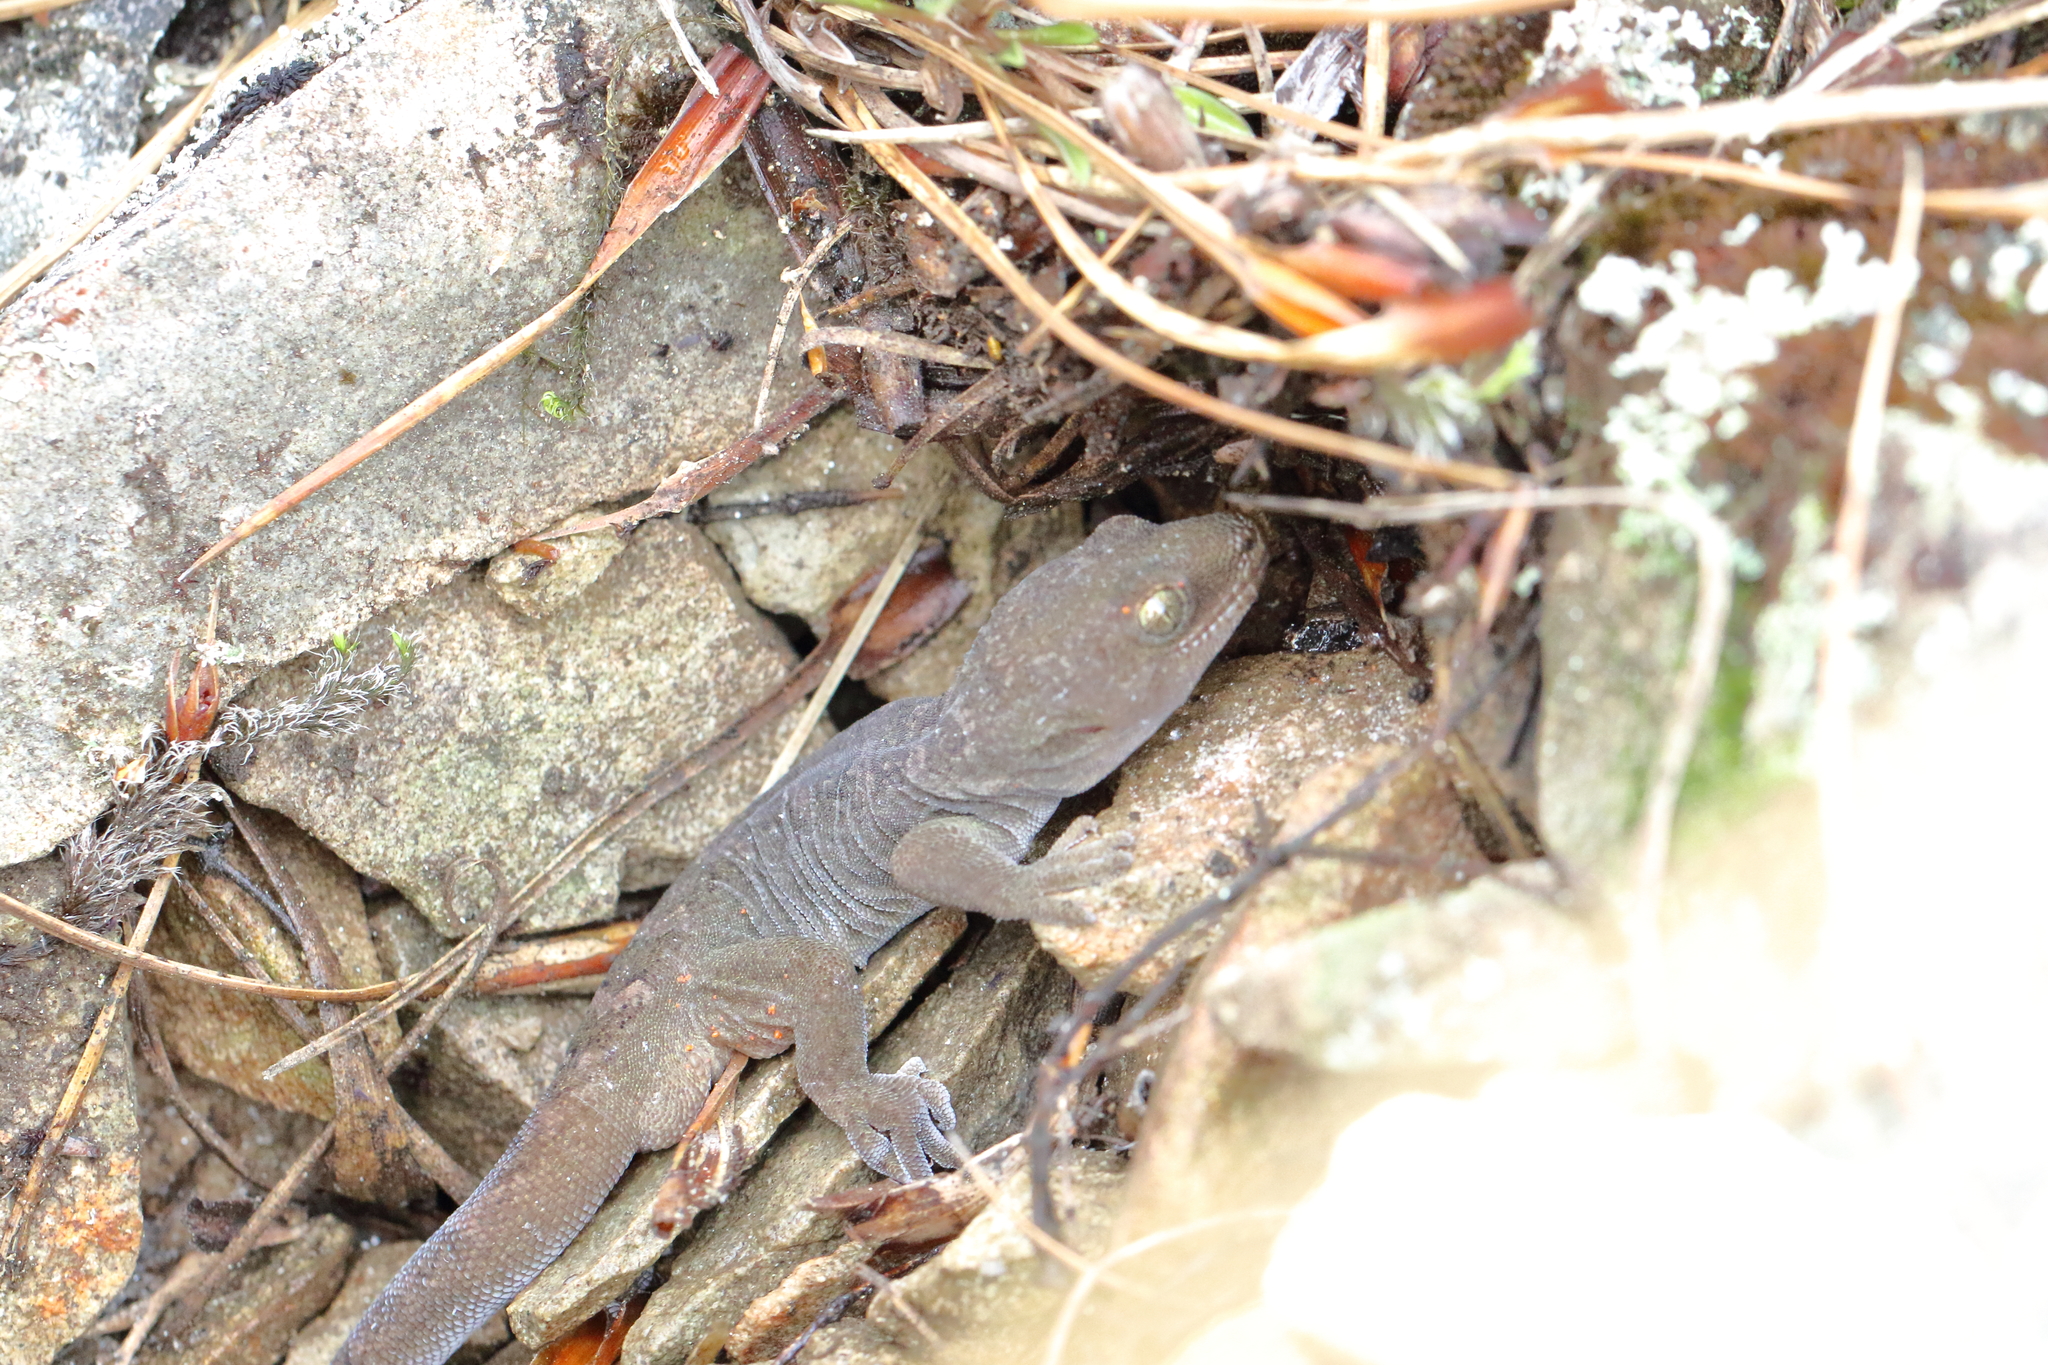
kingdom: Animalia
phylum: Chordata
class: Squamata
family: Diplodactylidae
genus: Woodworthia
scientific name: Woodworthia
